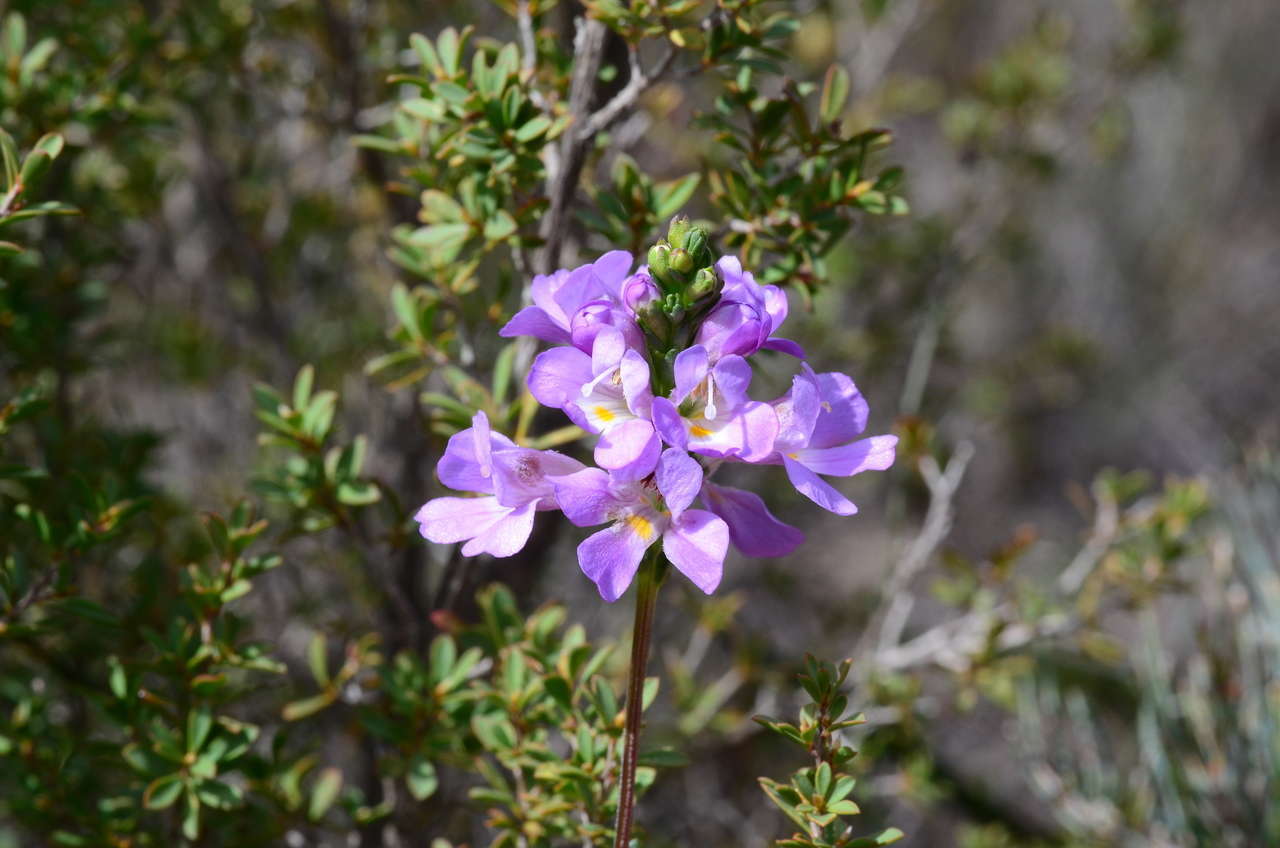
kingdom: Plantae
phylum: Tracheophyta
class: Magnoliopsida
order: Lamiales
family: Orobanchaceae
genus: Euphrasia
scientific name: Euphrasia collina
